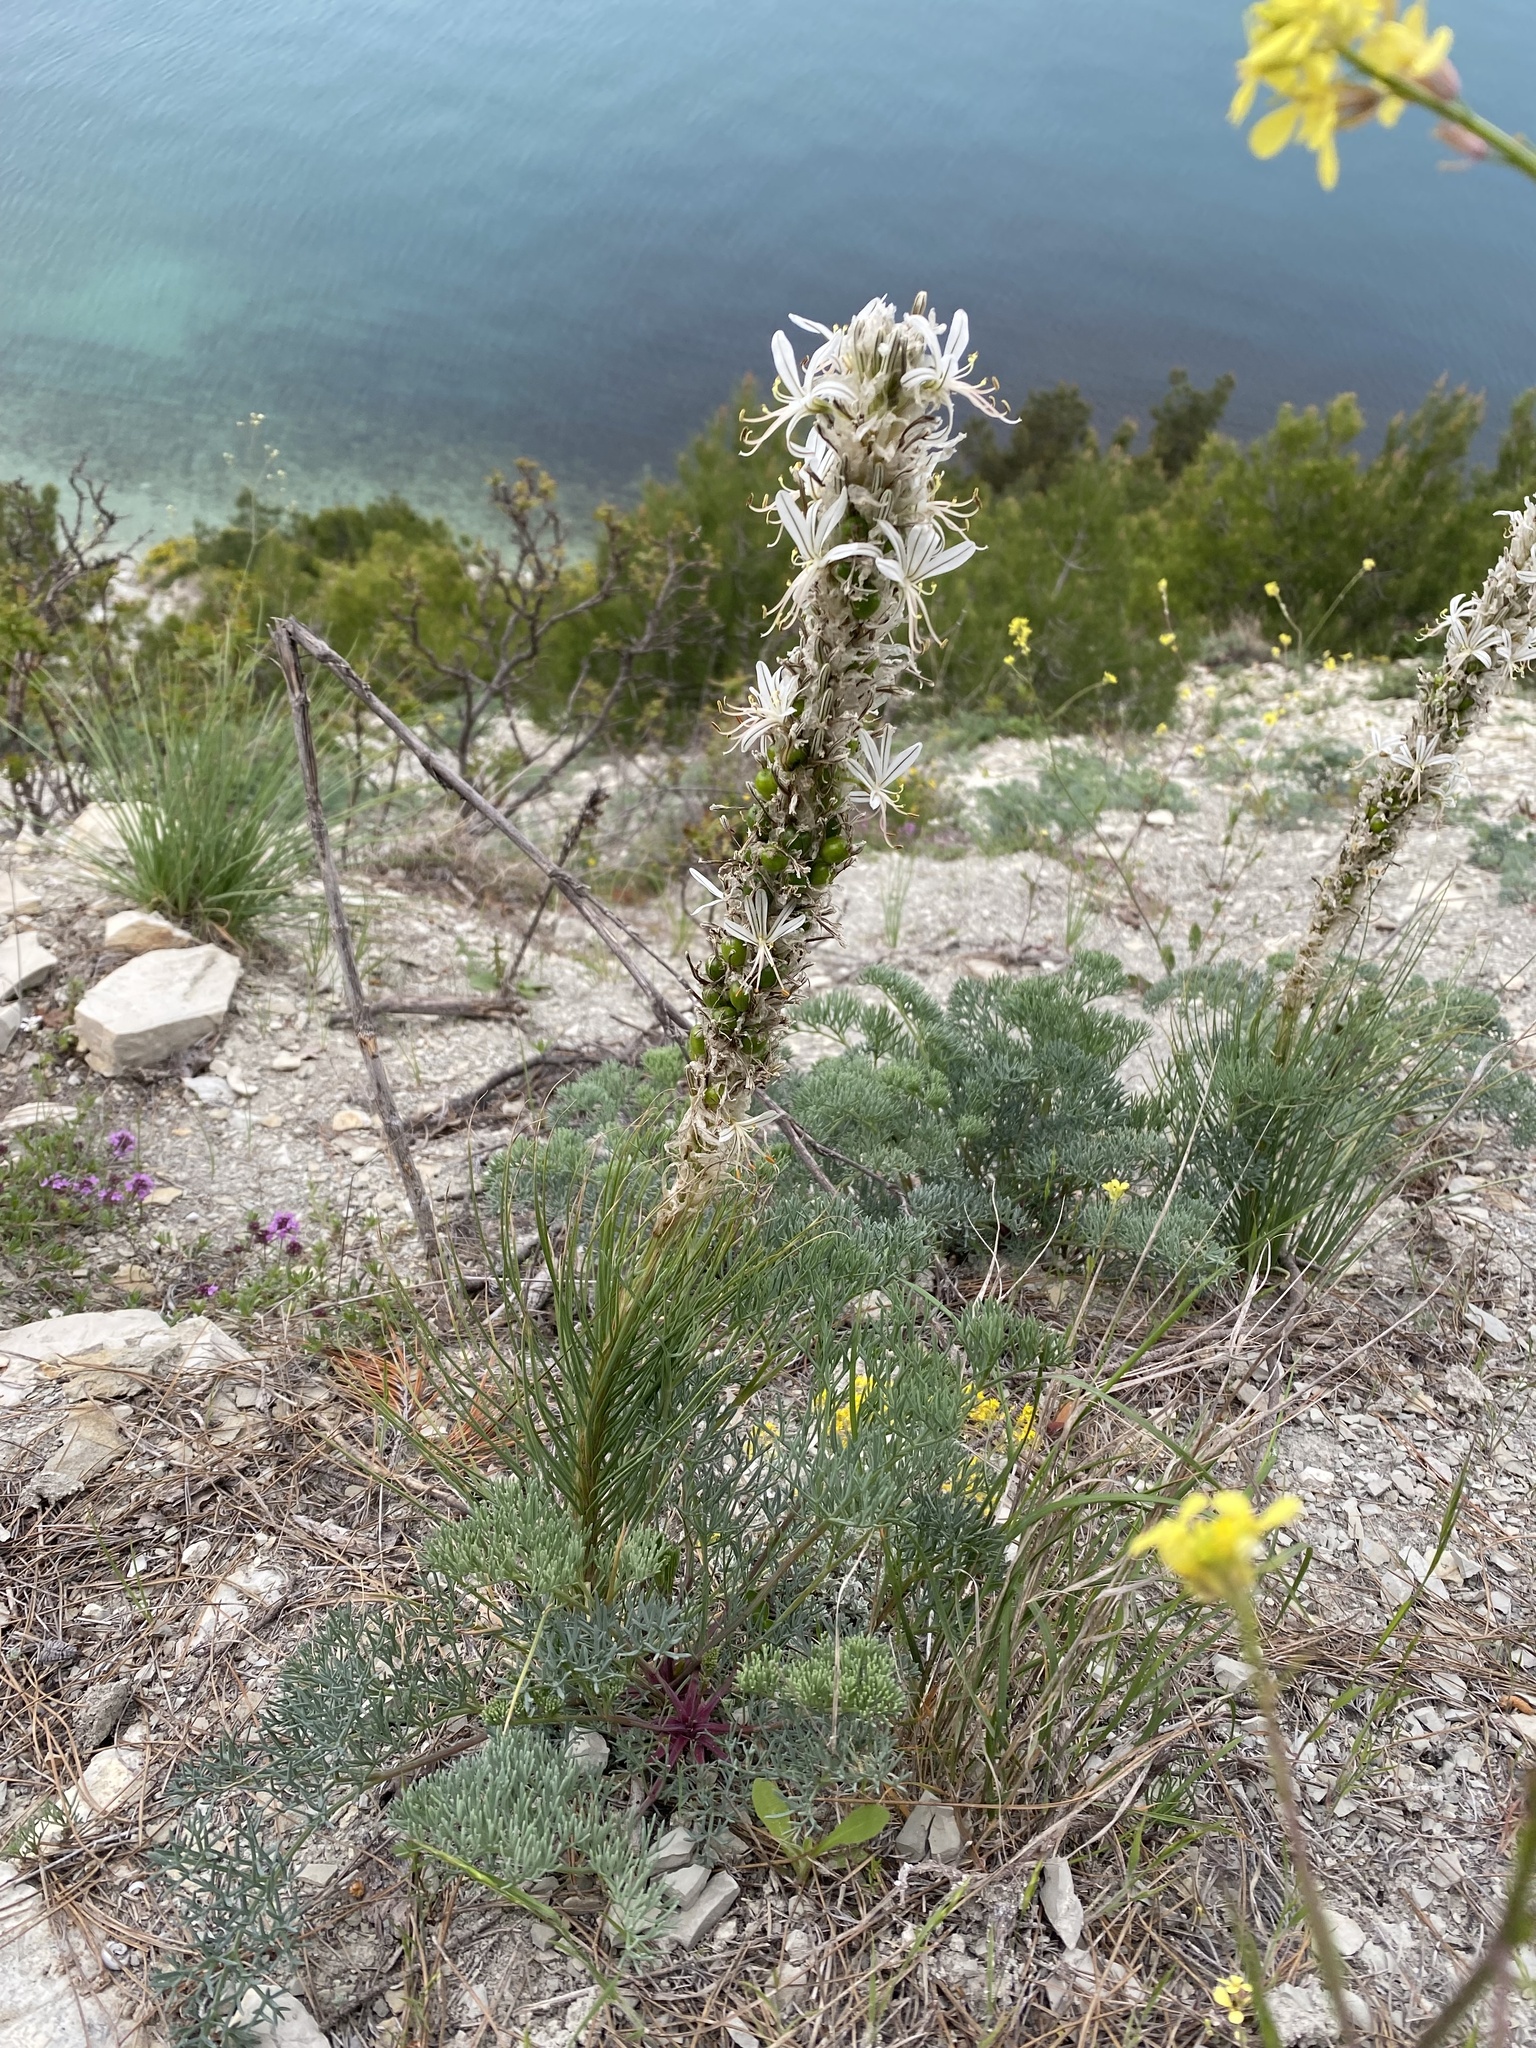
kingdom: Plantae
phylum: Tracheophyta
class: Liliopsida
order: Asparagales
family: Asphodelaceae
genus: Asphodeline
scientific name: Asphodeline taurica
